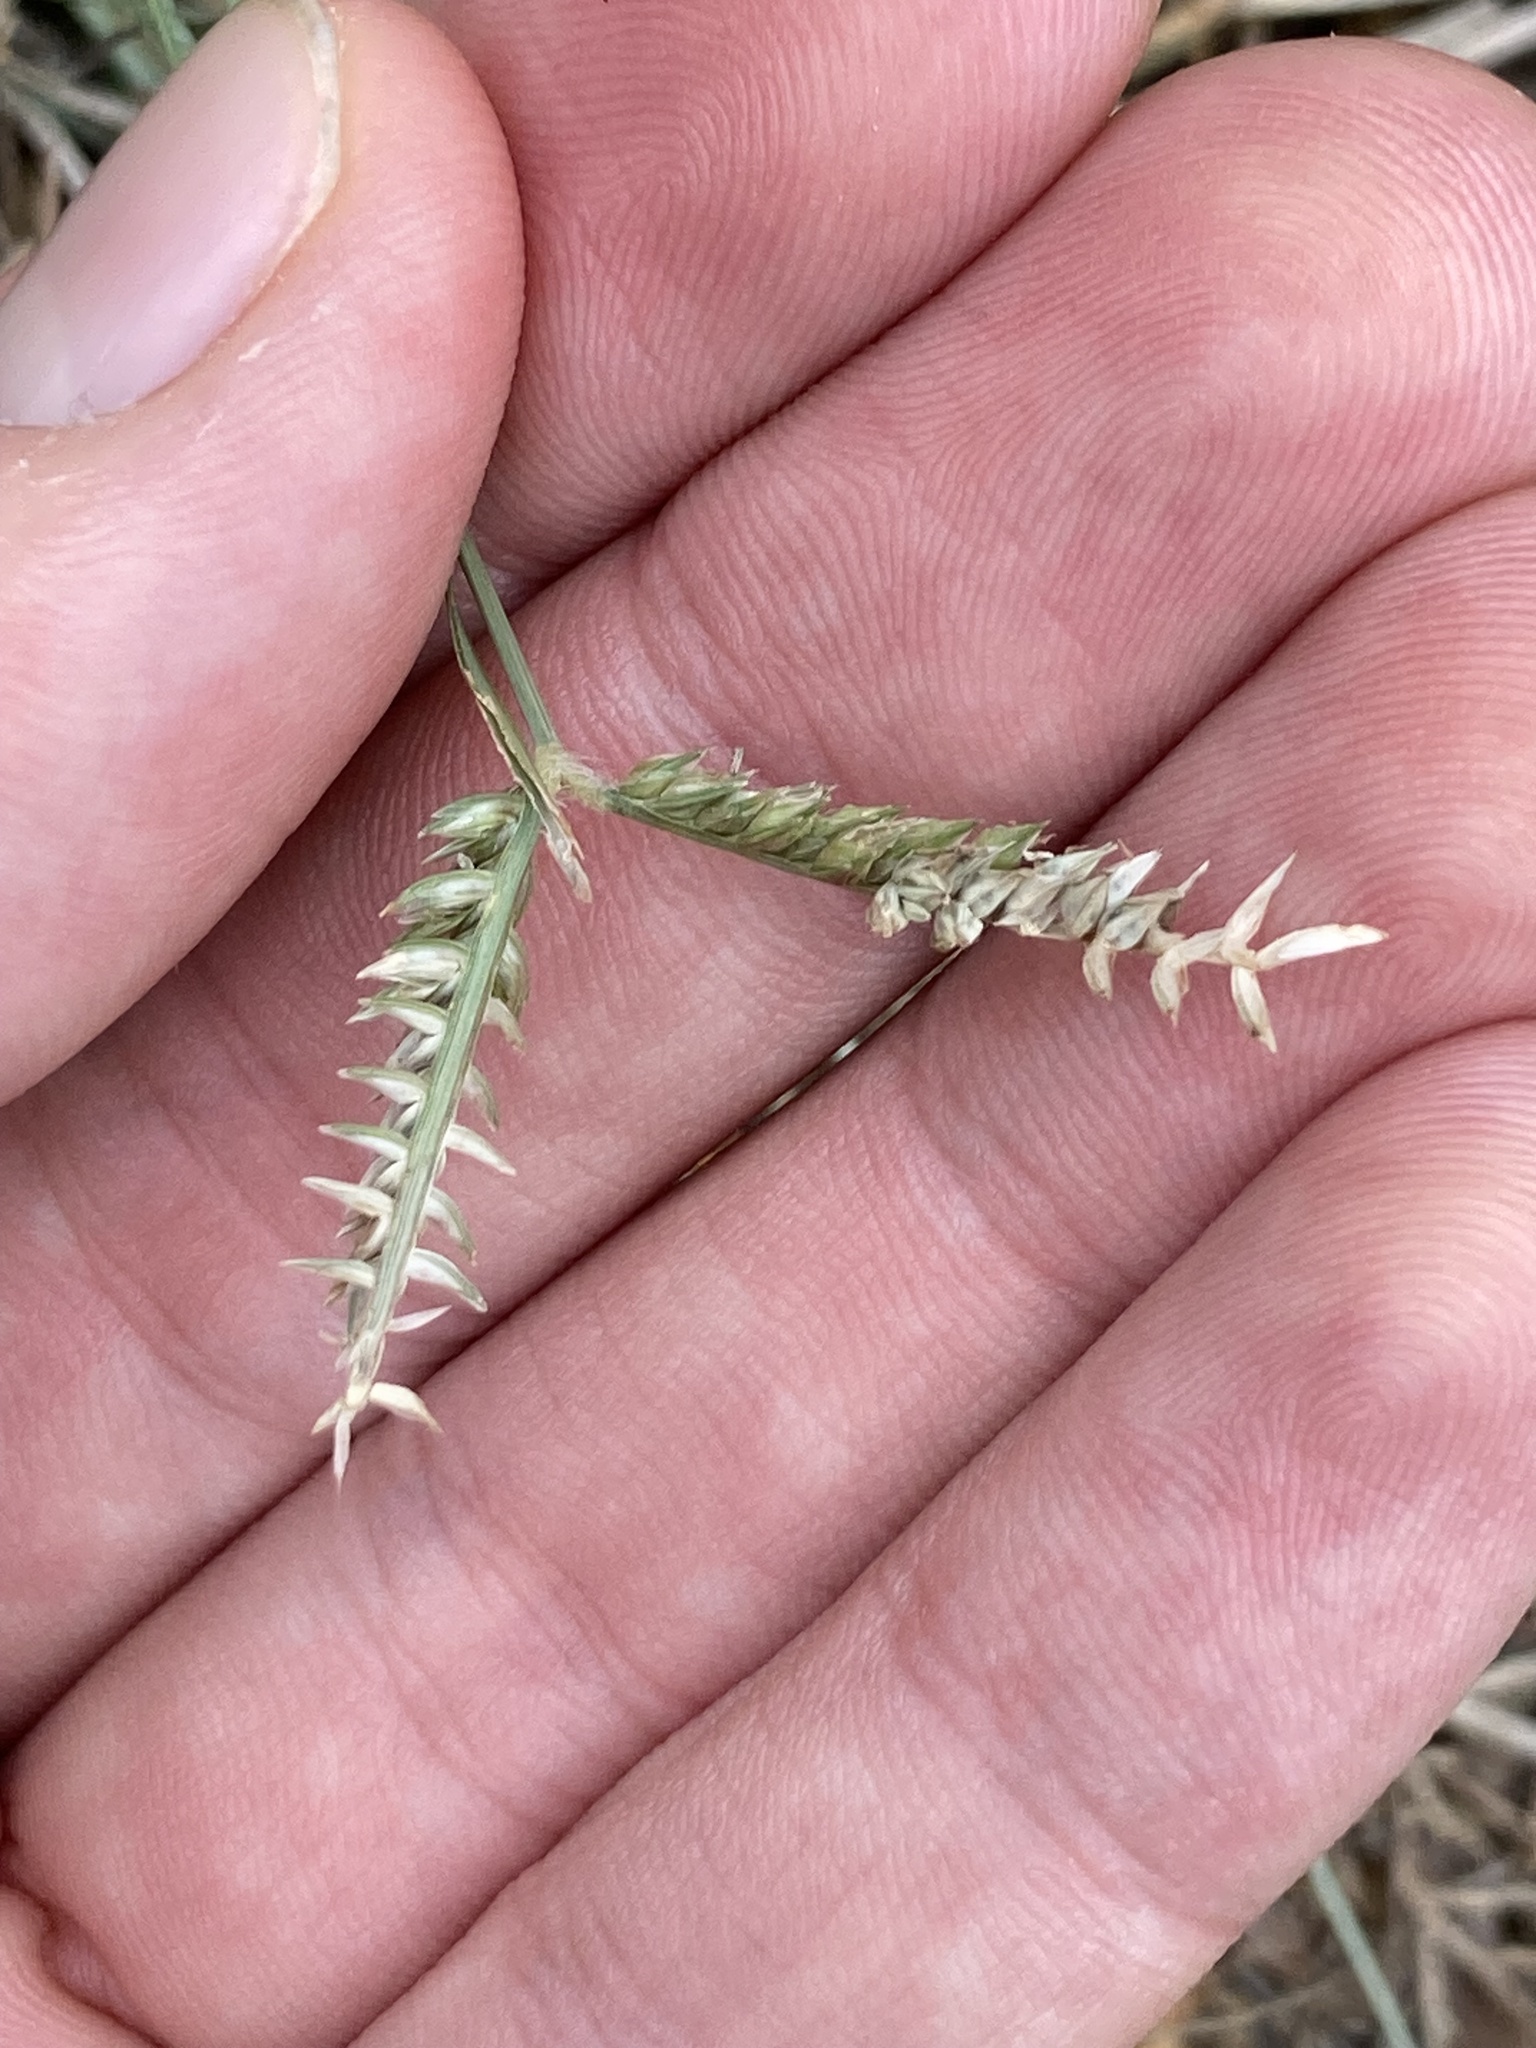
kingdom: Plantae
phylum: Tracheophyta
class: Liliopsida
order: Poales
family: Poaceae
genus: Eleusine
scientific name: Eleusine tristachya
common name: American yard-grass
